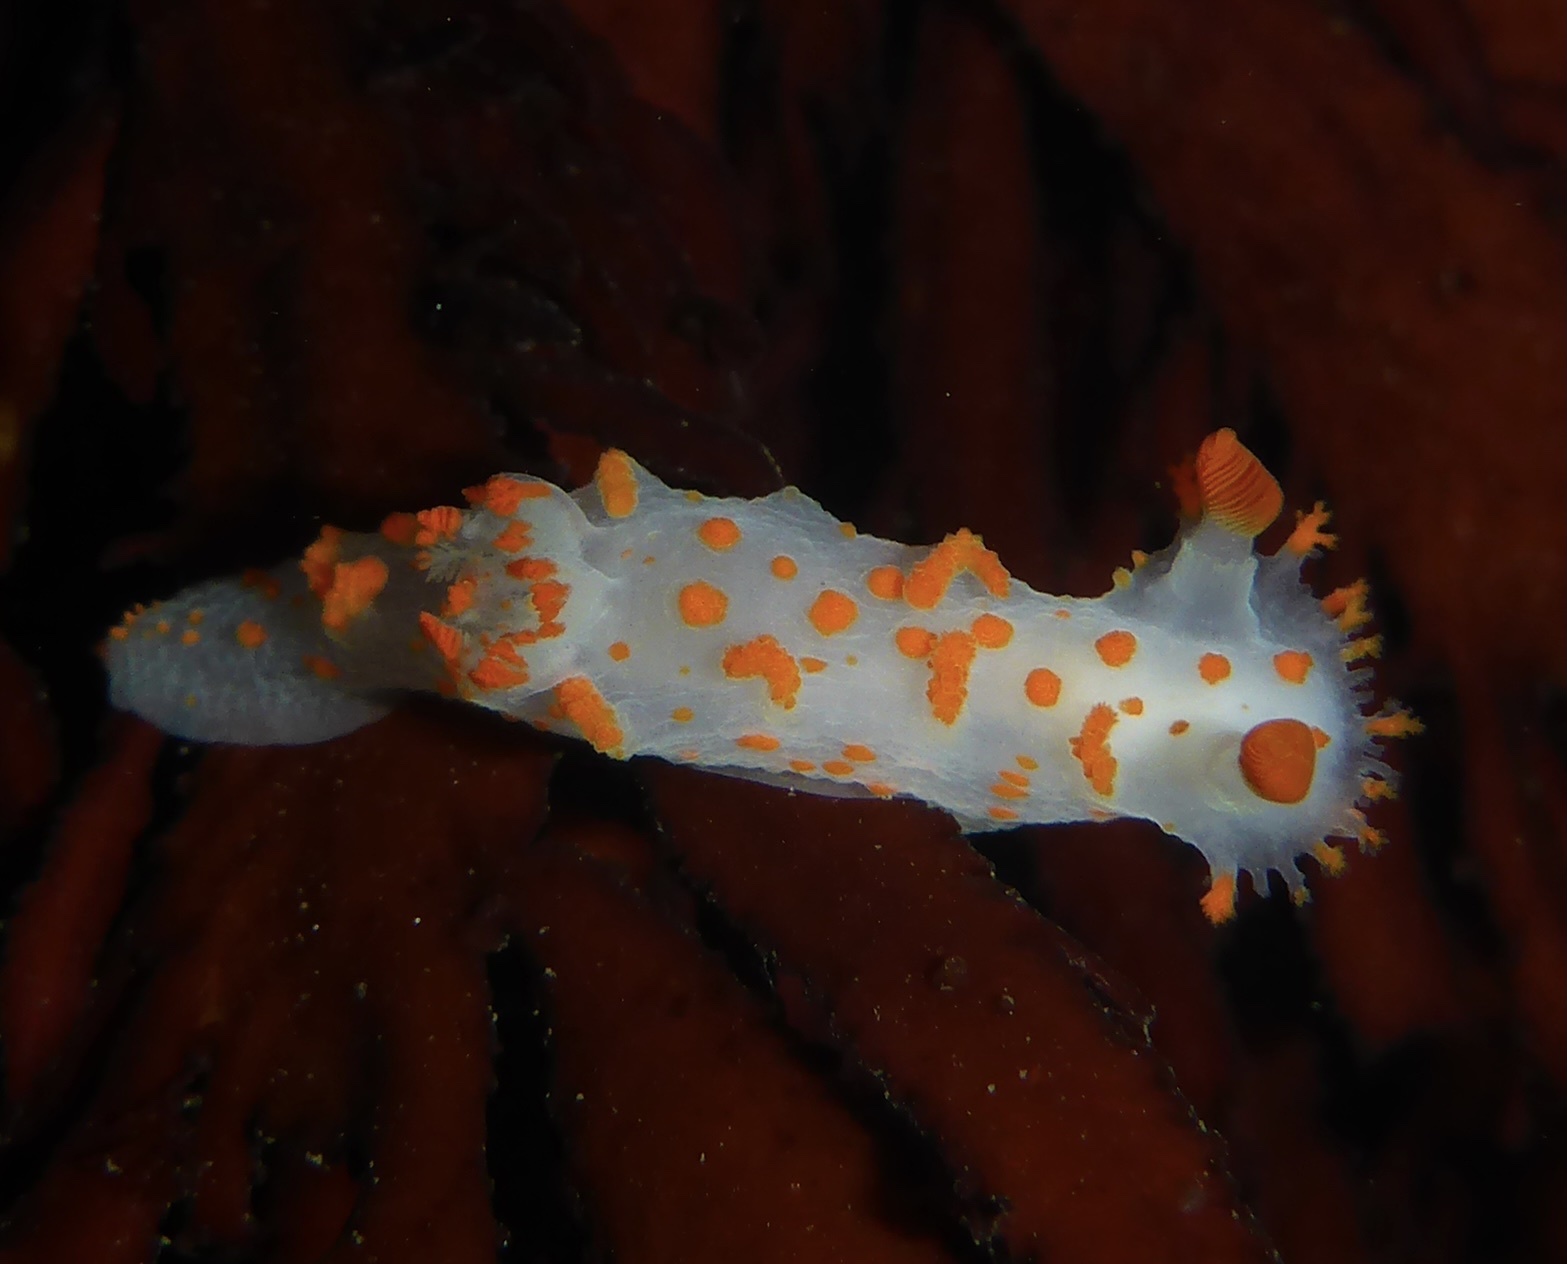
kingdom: Animalia
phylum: Mollusca
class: Gastropoda
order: Nudibranchia
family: Polyceridae
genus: Triopha
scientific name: Triopha catalinae
